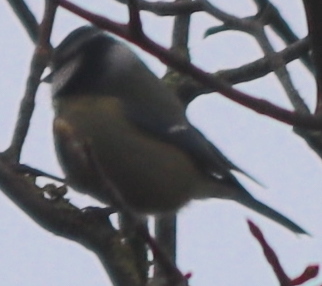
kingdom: Animalia
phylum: Chordata
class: Aves
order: Passeriformes
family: Paridae
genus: Cyanistes
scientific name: Cyanistes caeruleus
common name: Eurasian blue tit
